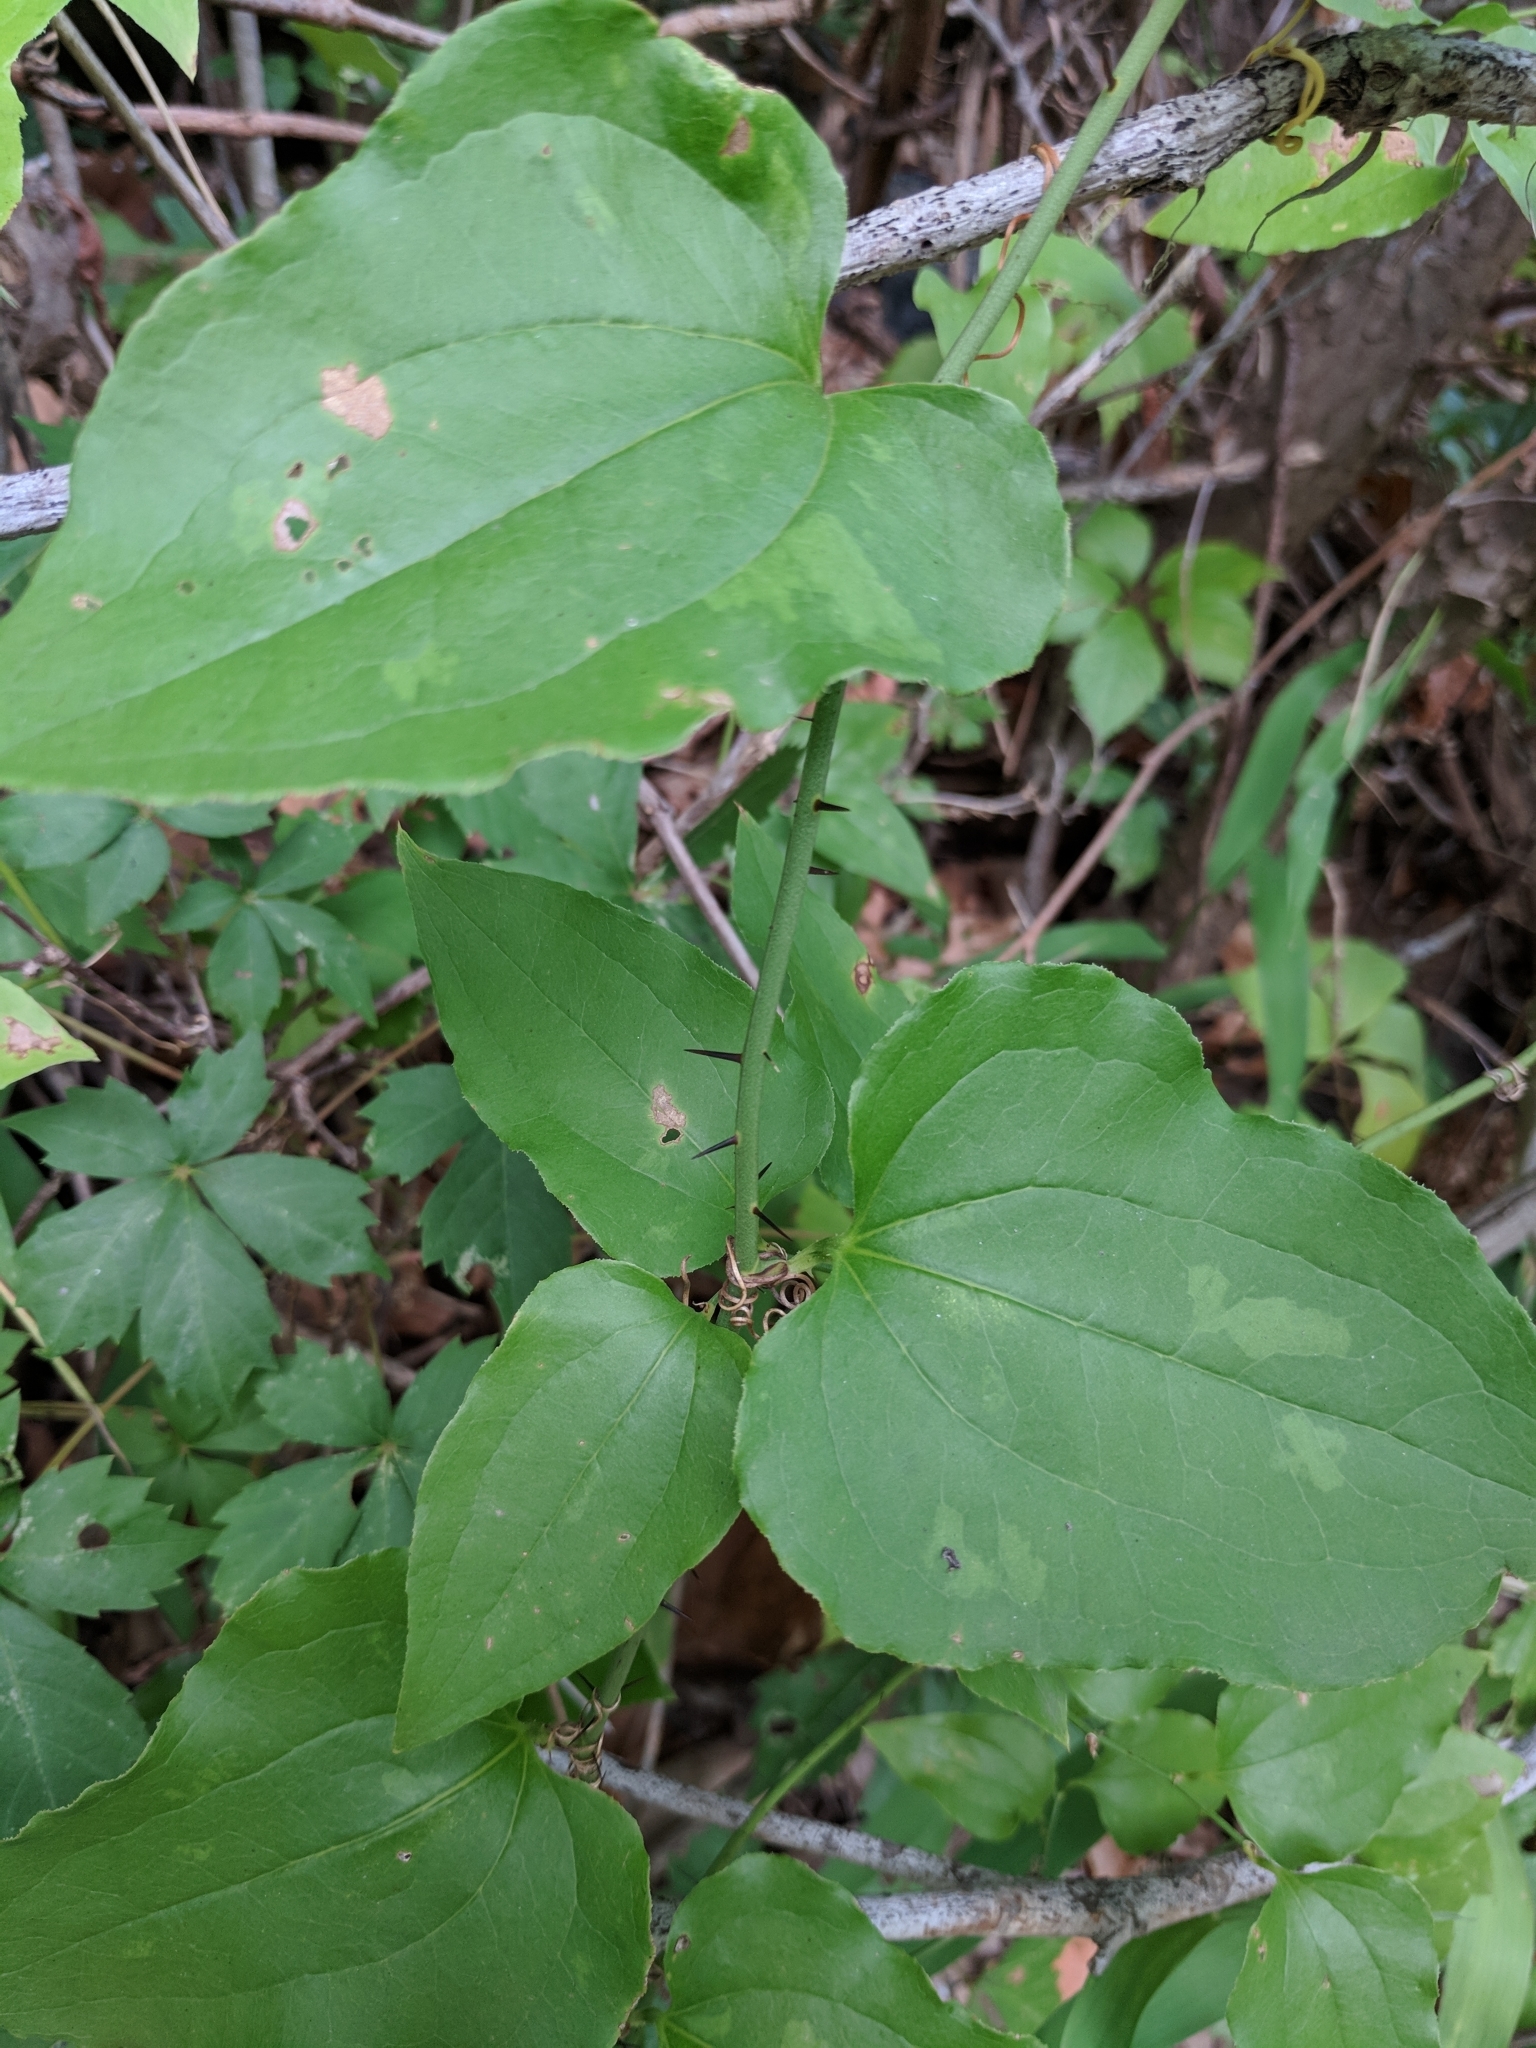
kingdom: Plantae
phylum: Tracheophyta
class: Liliopsida
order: Liliales
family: Smilacaceae
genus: Smilax
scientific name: Smilax tamnoides
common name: Hellfetter
